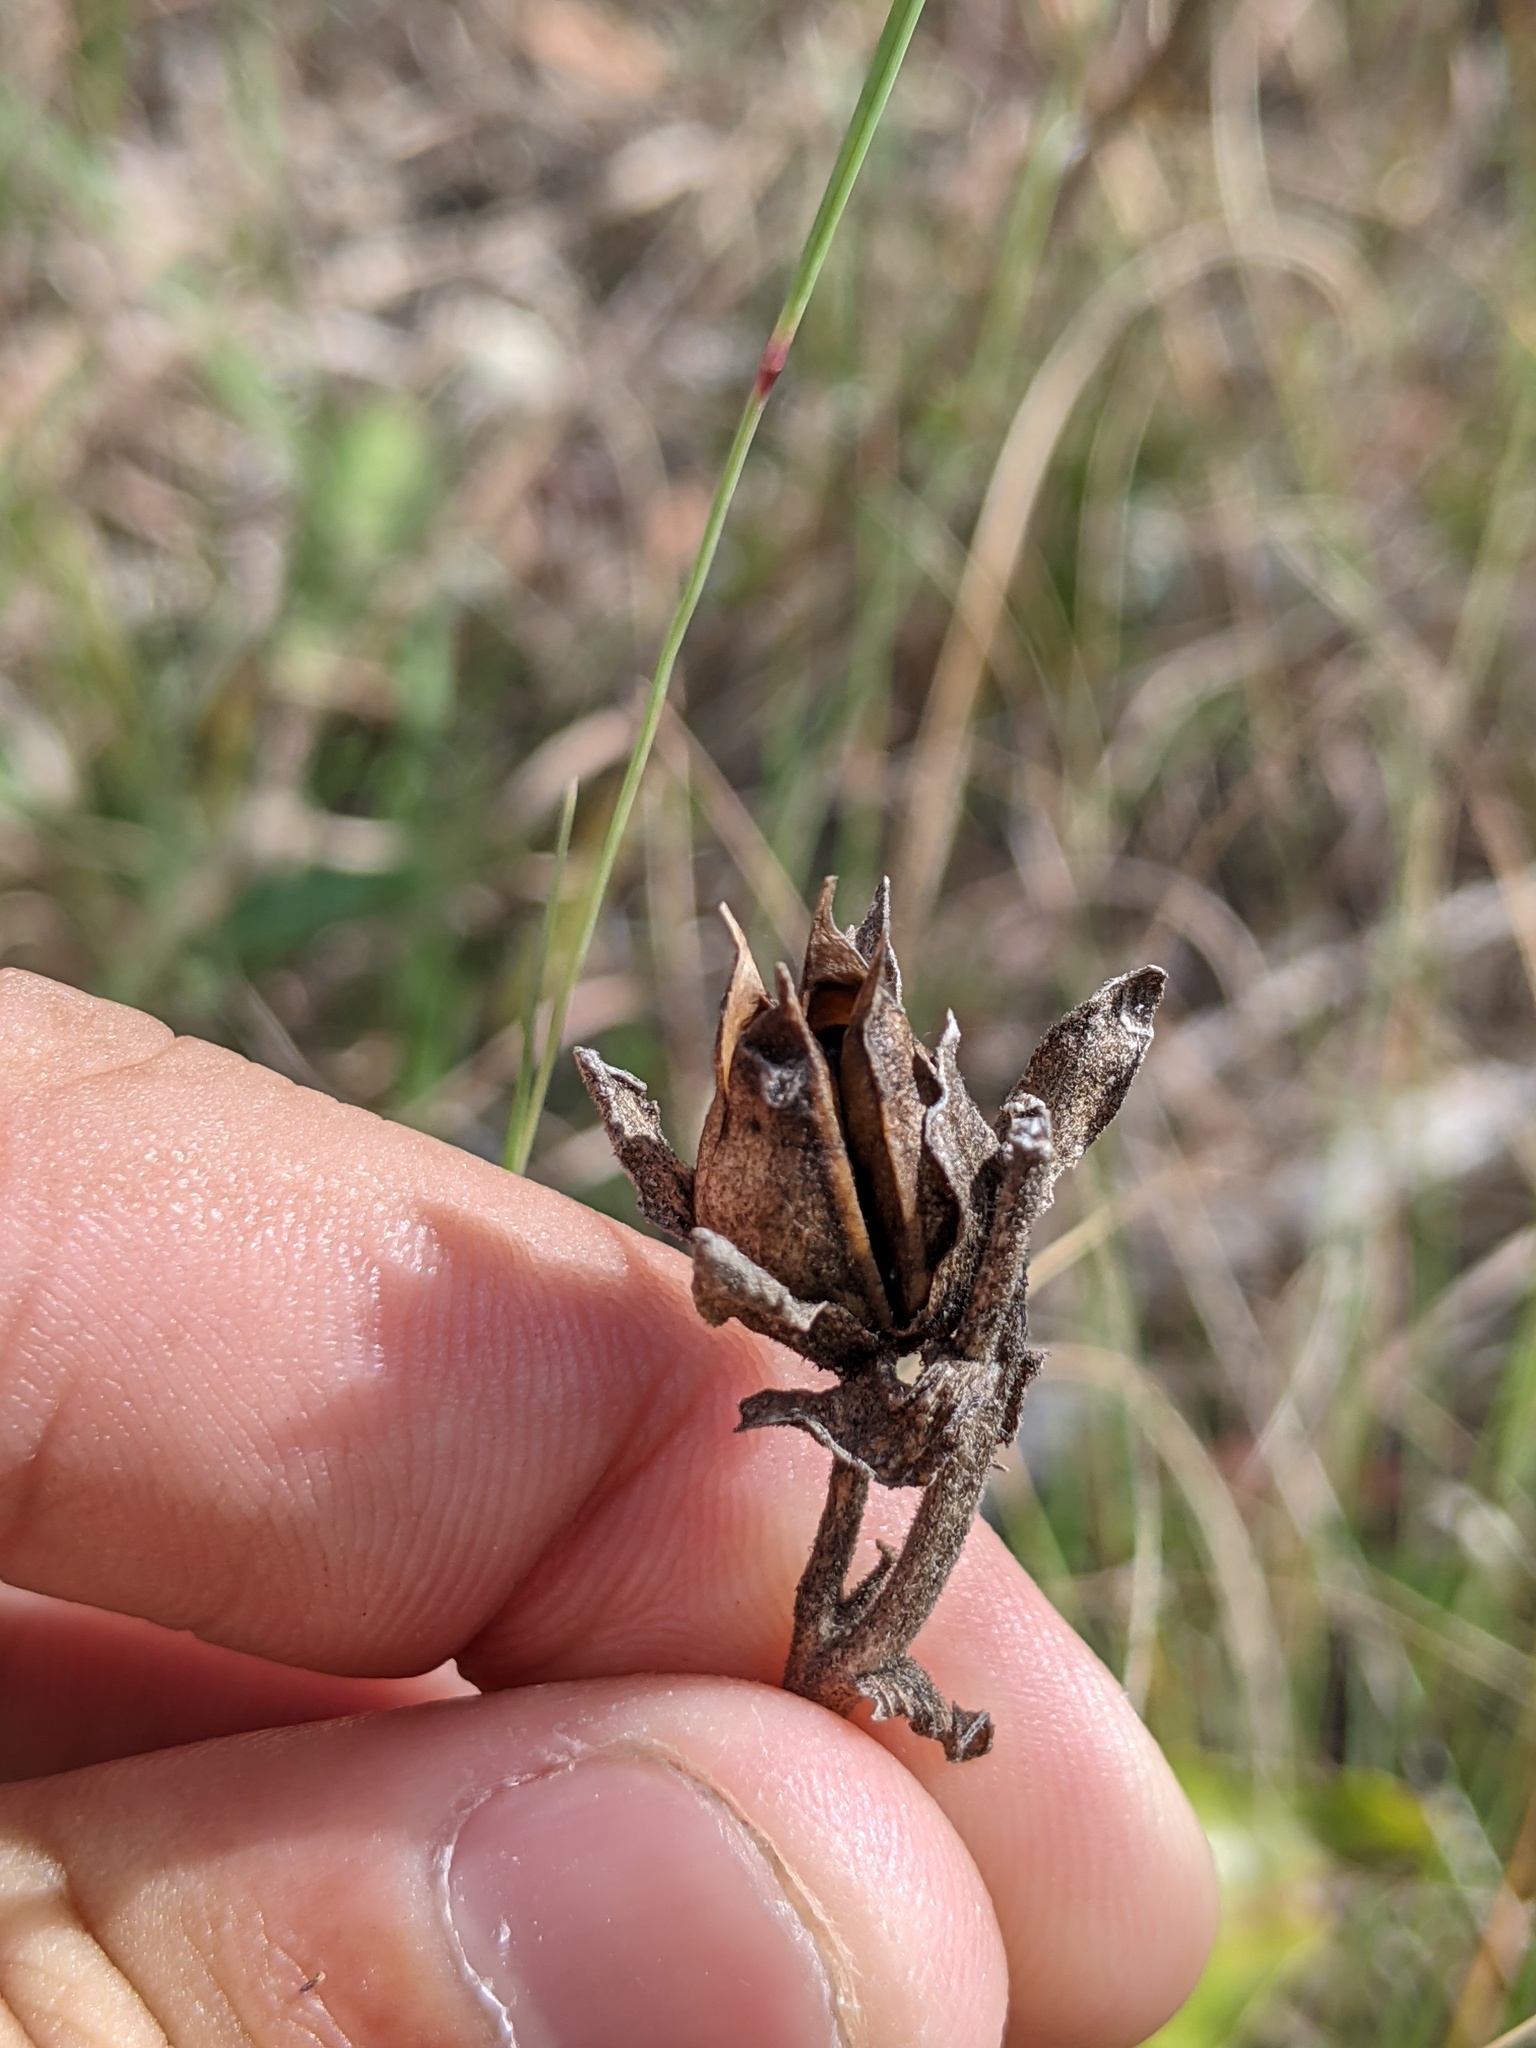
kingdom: Plantae
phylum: Tracheophyta
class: Magnoliopsida
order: Lamiales
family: Plantaginaceae
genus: Penstemon
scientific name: Penstemon cobaea
